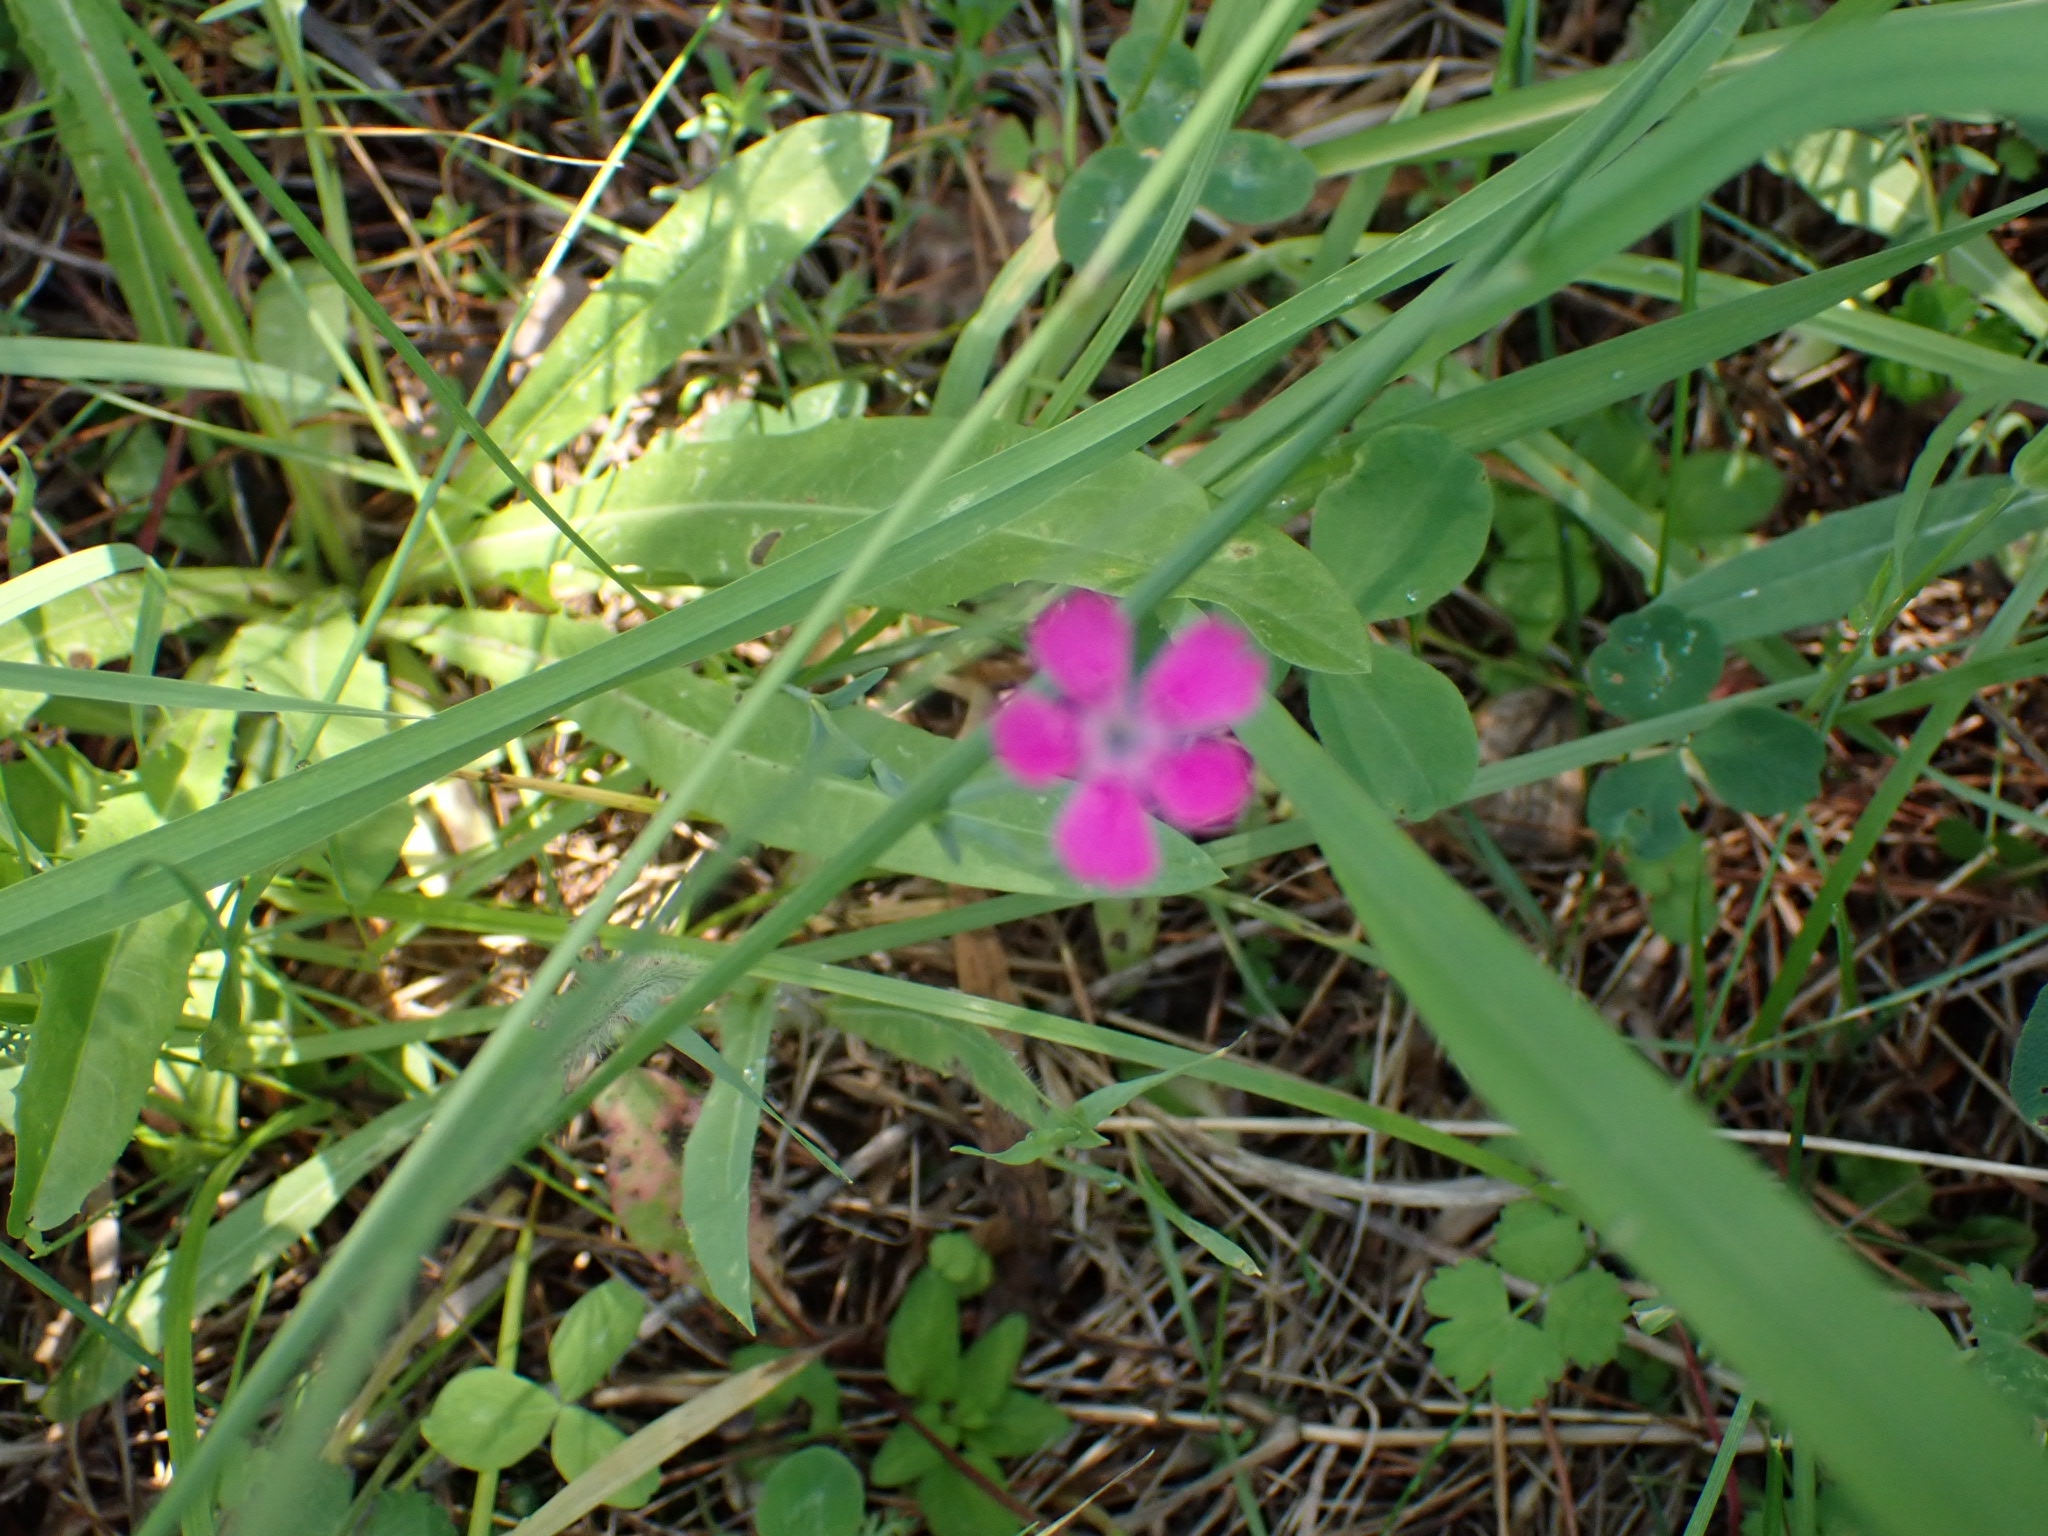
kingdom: Plantae
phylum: Tracheophyta
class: Magnoliopsida
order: Caryophyllales
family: Caryophyllaceae
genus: Dianthus
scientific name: Dianthus deltoides
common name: Maiden pink
